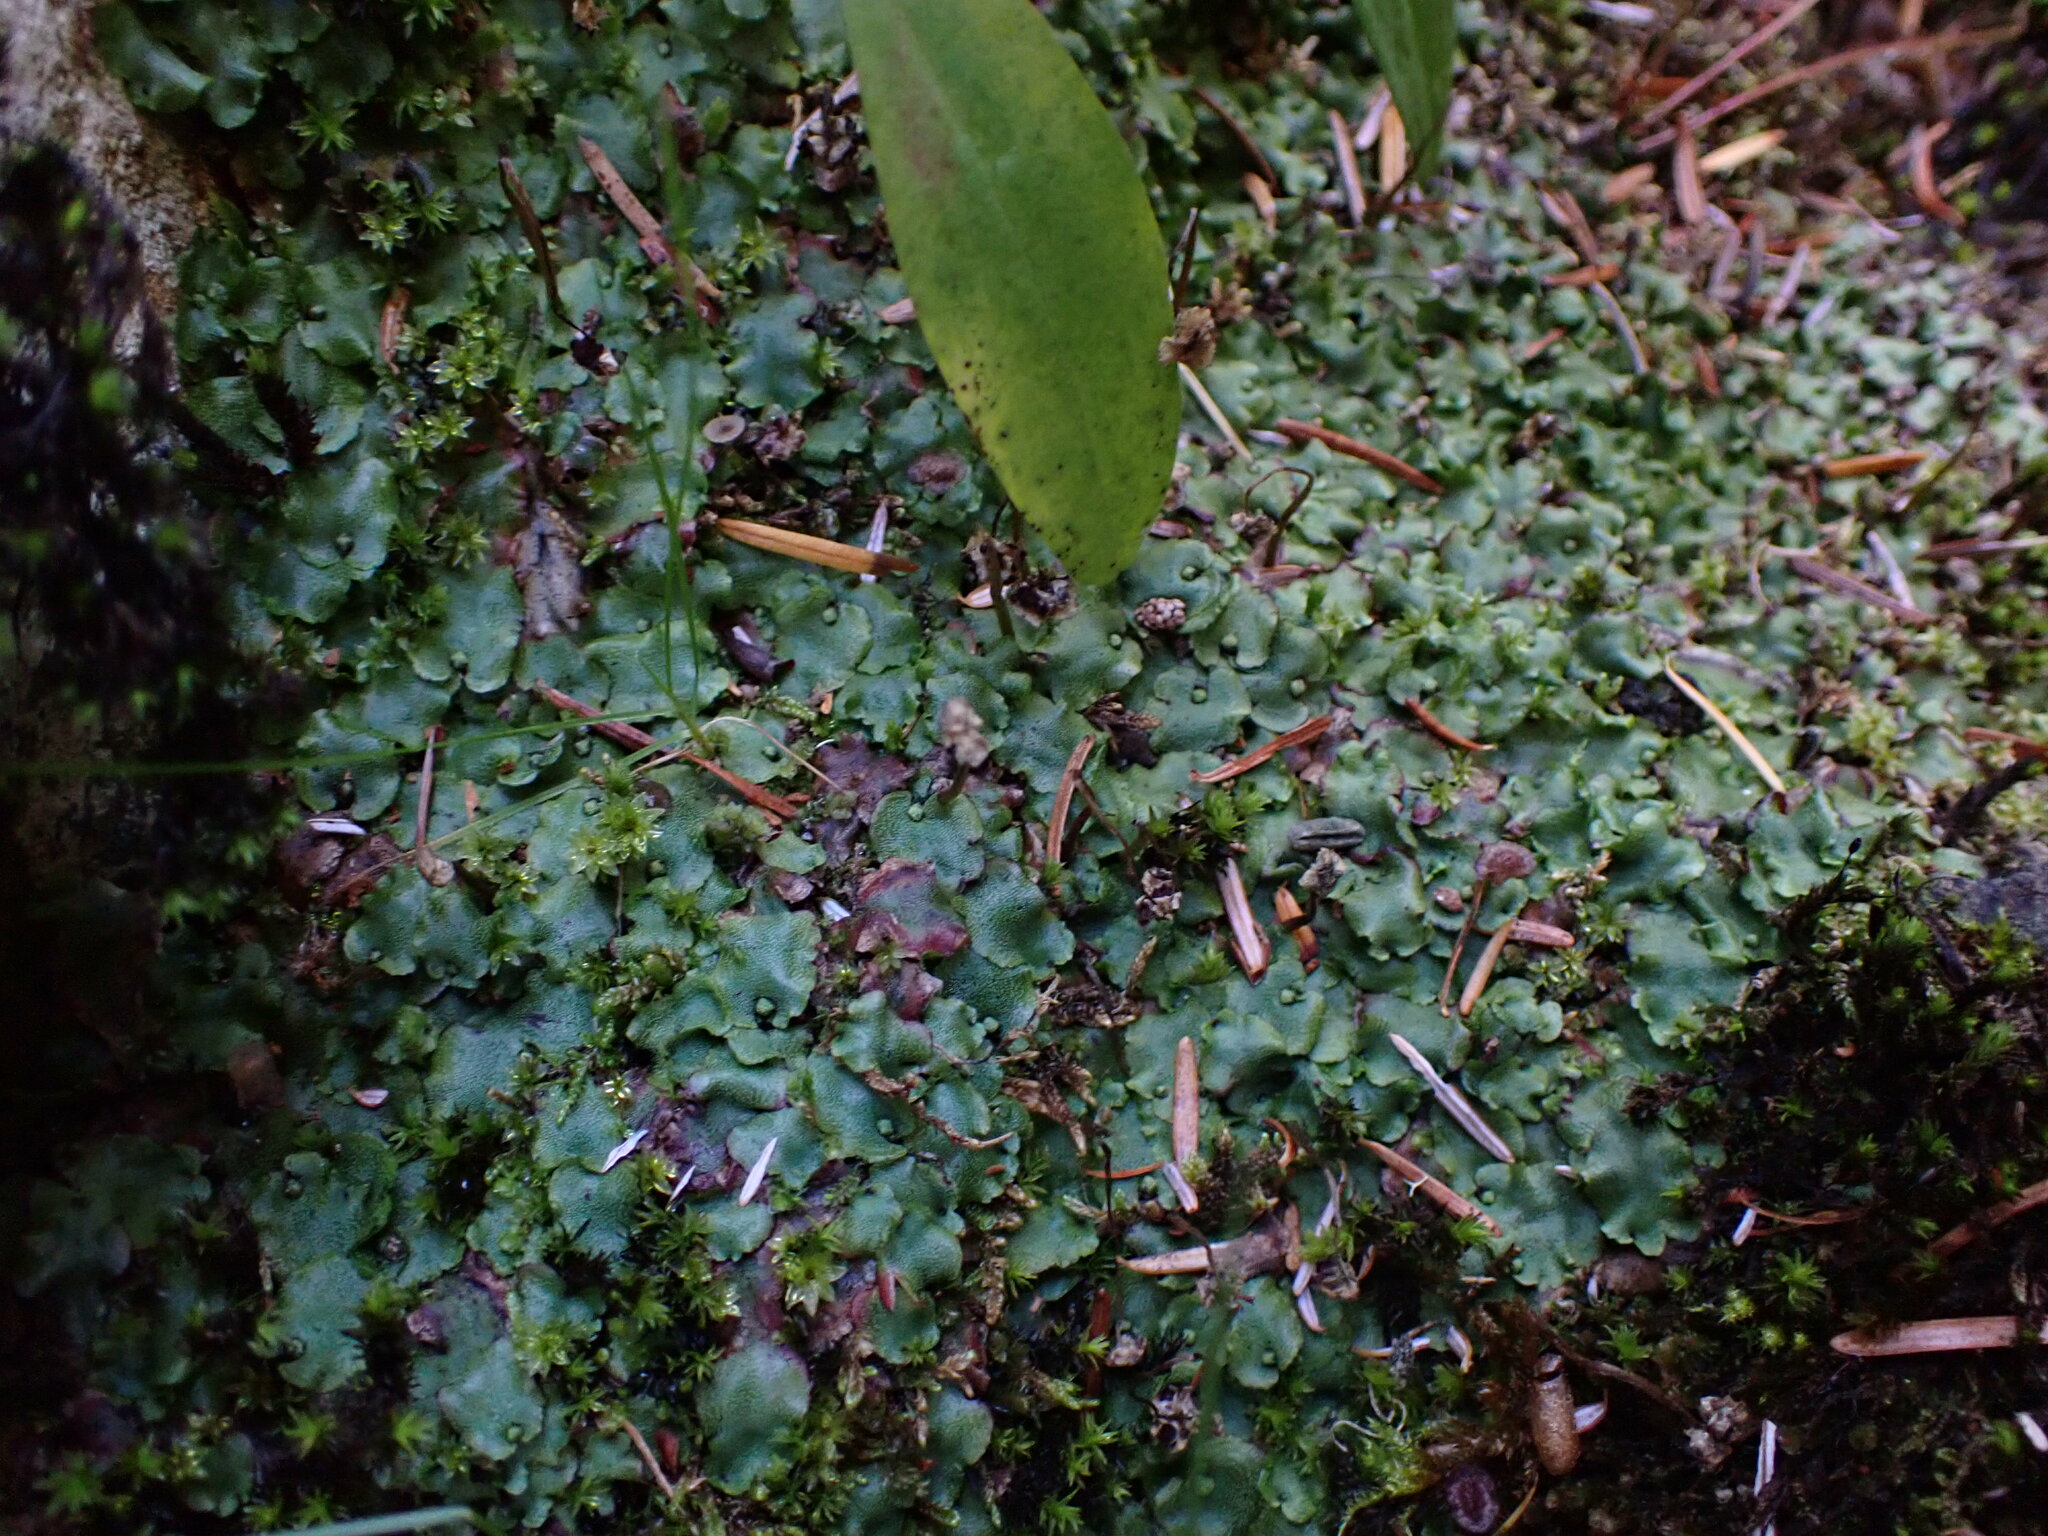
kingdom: Plantae
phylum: Marchantiophyta
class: Marchantiopsida
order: Marchantiales
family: Marchantiaceae
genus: Marchantia
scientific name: Marchantia quadrata
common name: Narrow mushroom-headed liverwort
